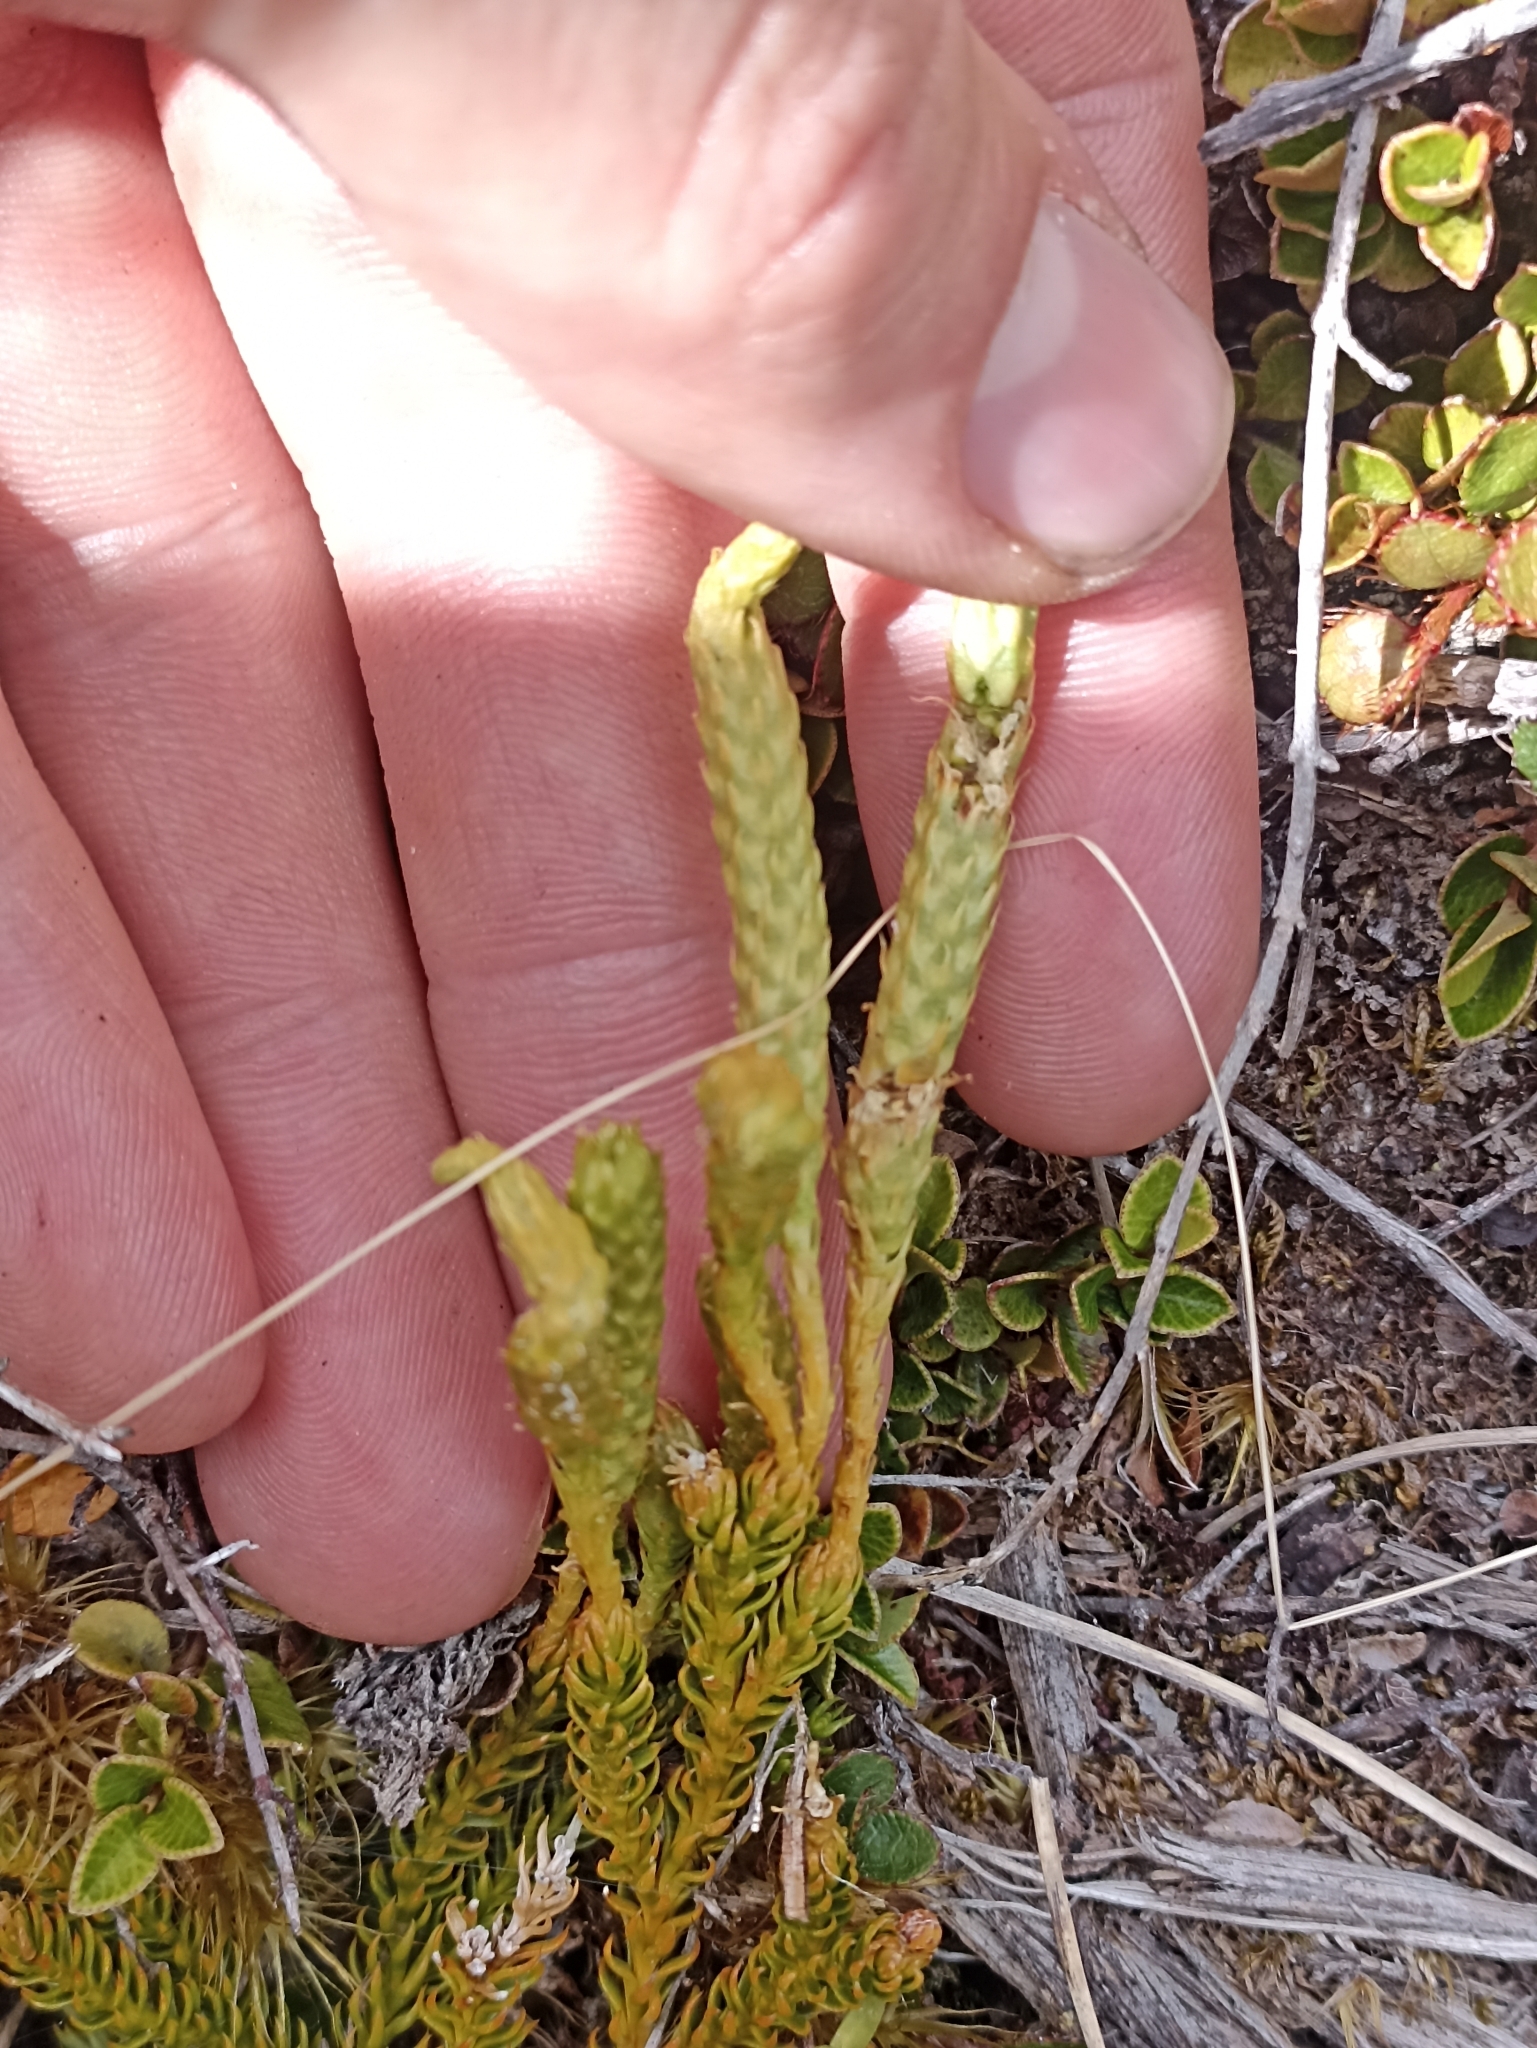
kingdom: Plantae
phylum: Tracheophyta
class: Lycopodiopsida
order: Lycopodiales
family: Lycopodiaceae
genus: Austrolycopodium
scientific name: Austrolycopodium fastigiatum
